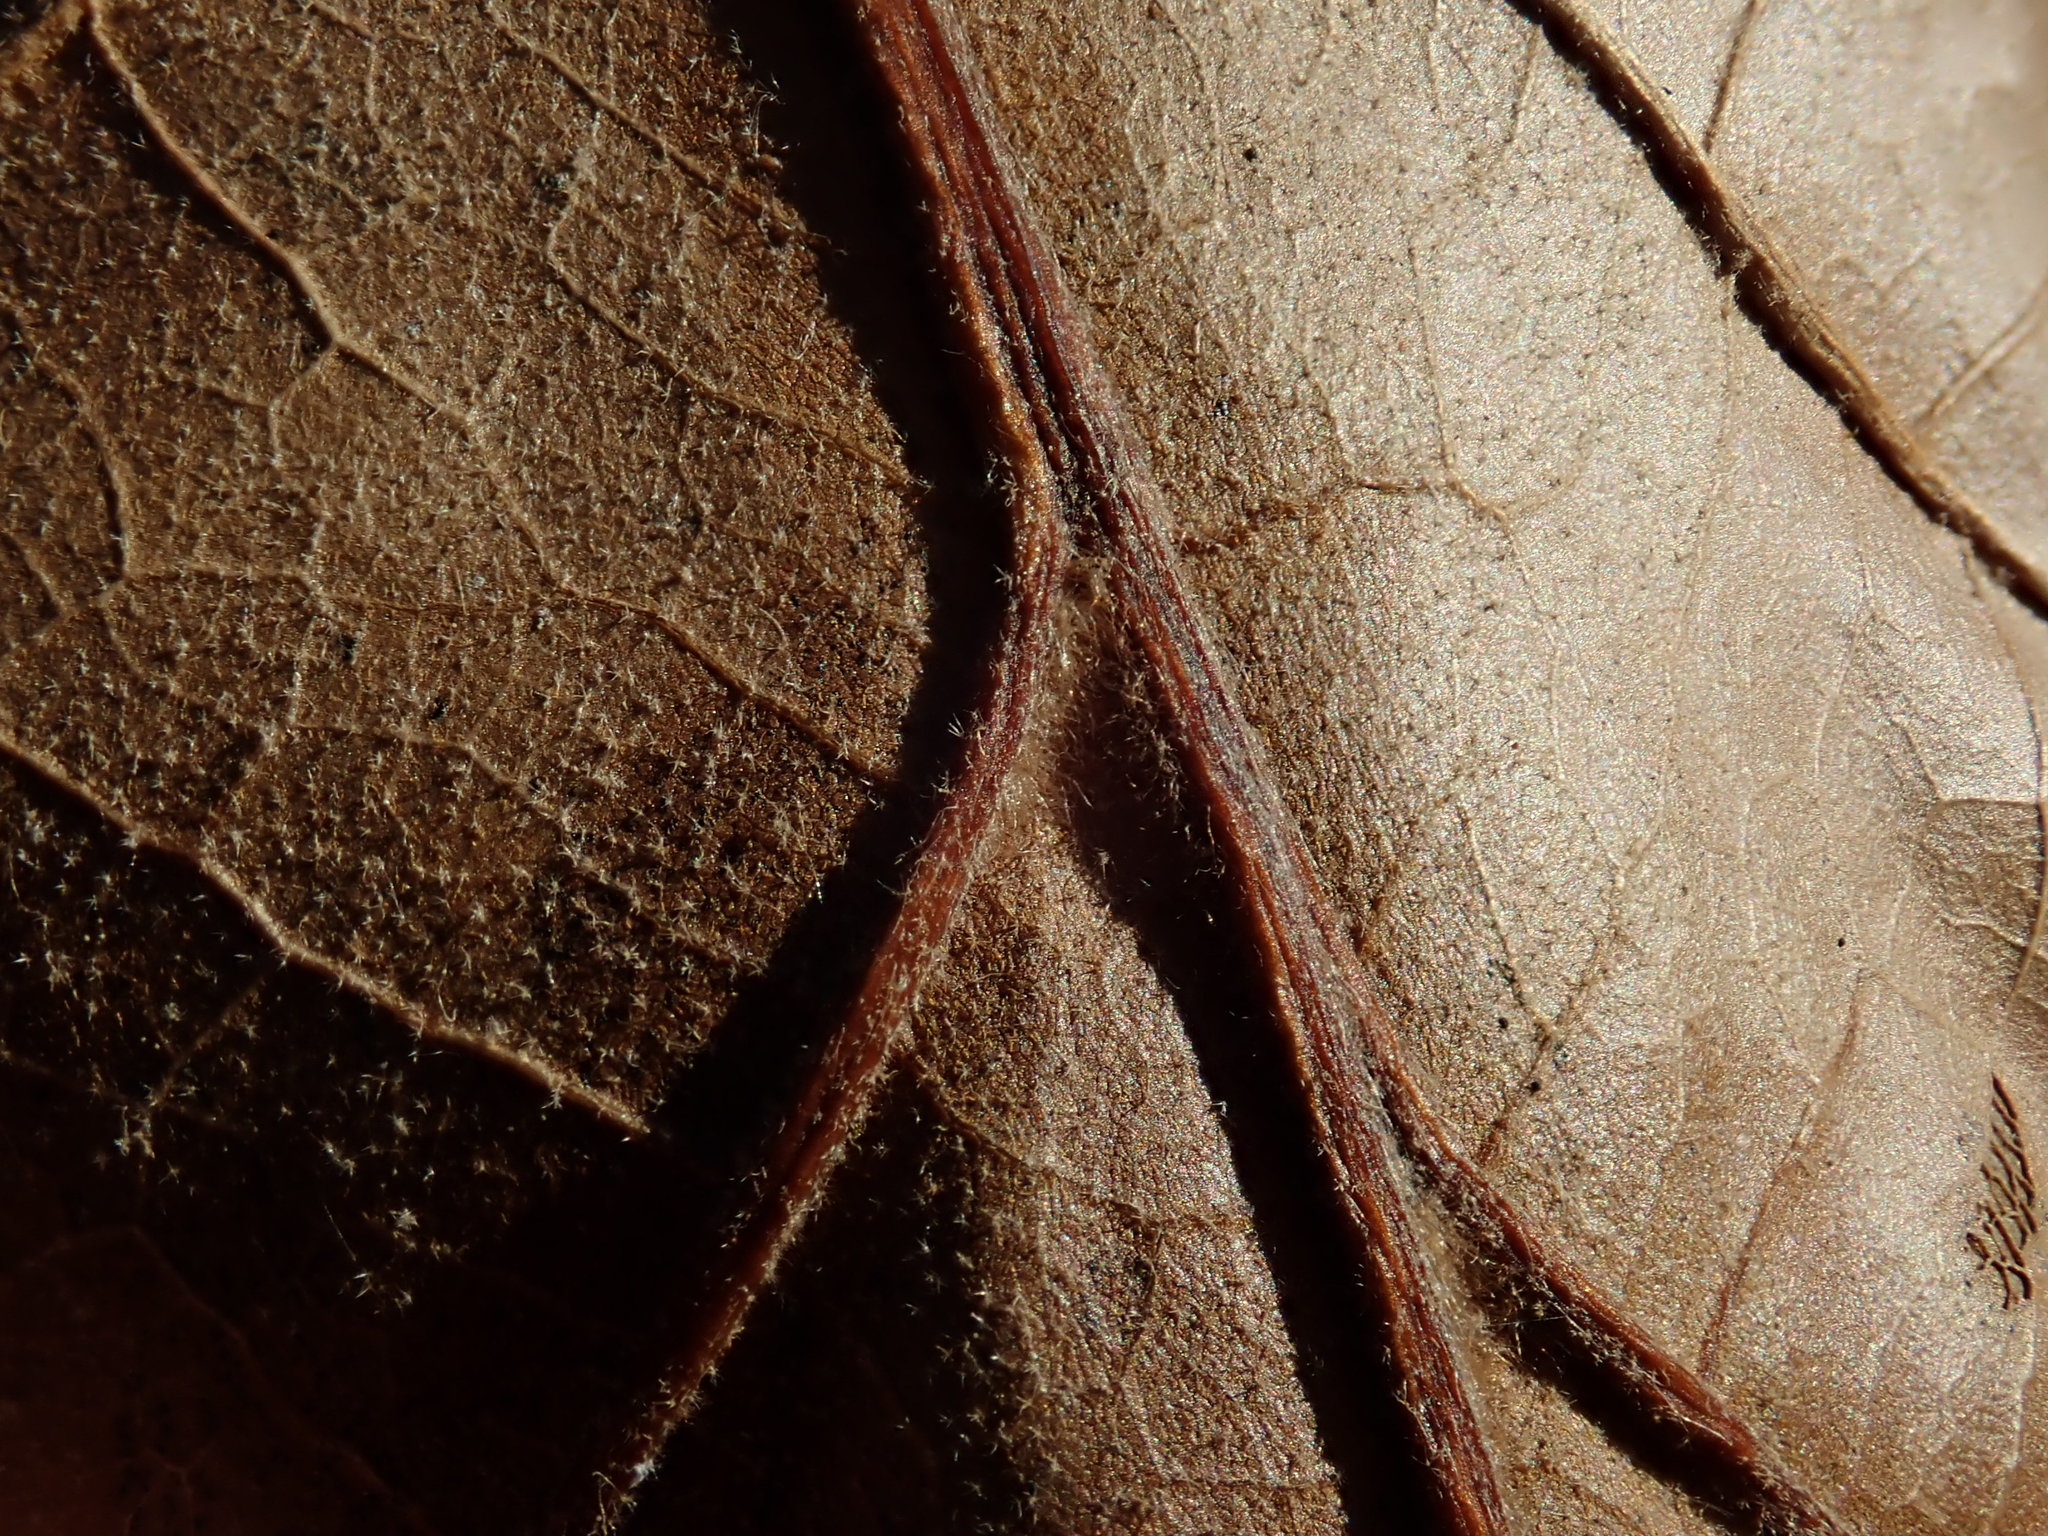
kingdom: Plantae
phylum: Tracheophyta
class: Magnoliopsida
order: Fagales
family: Fagaceae
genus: Quercus
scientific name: Quercus velutina
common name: Black oak
